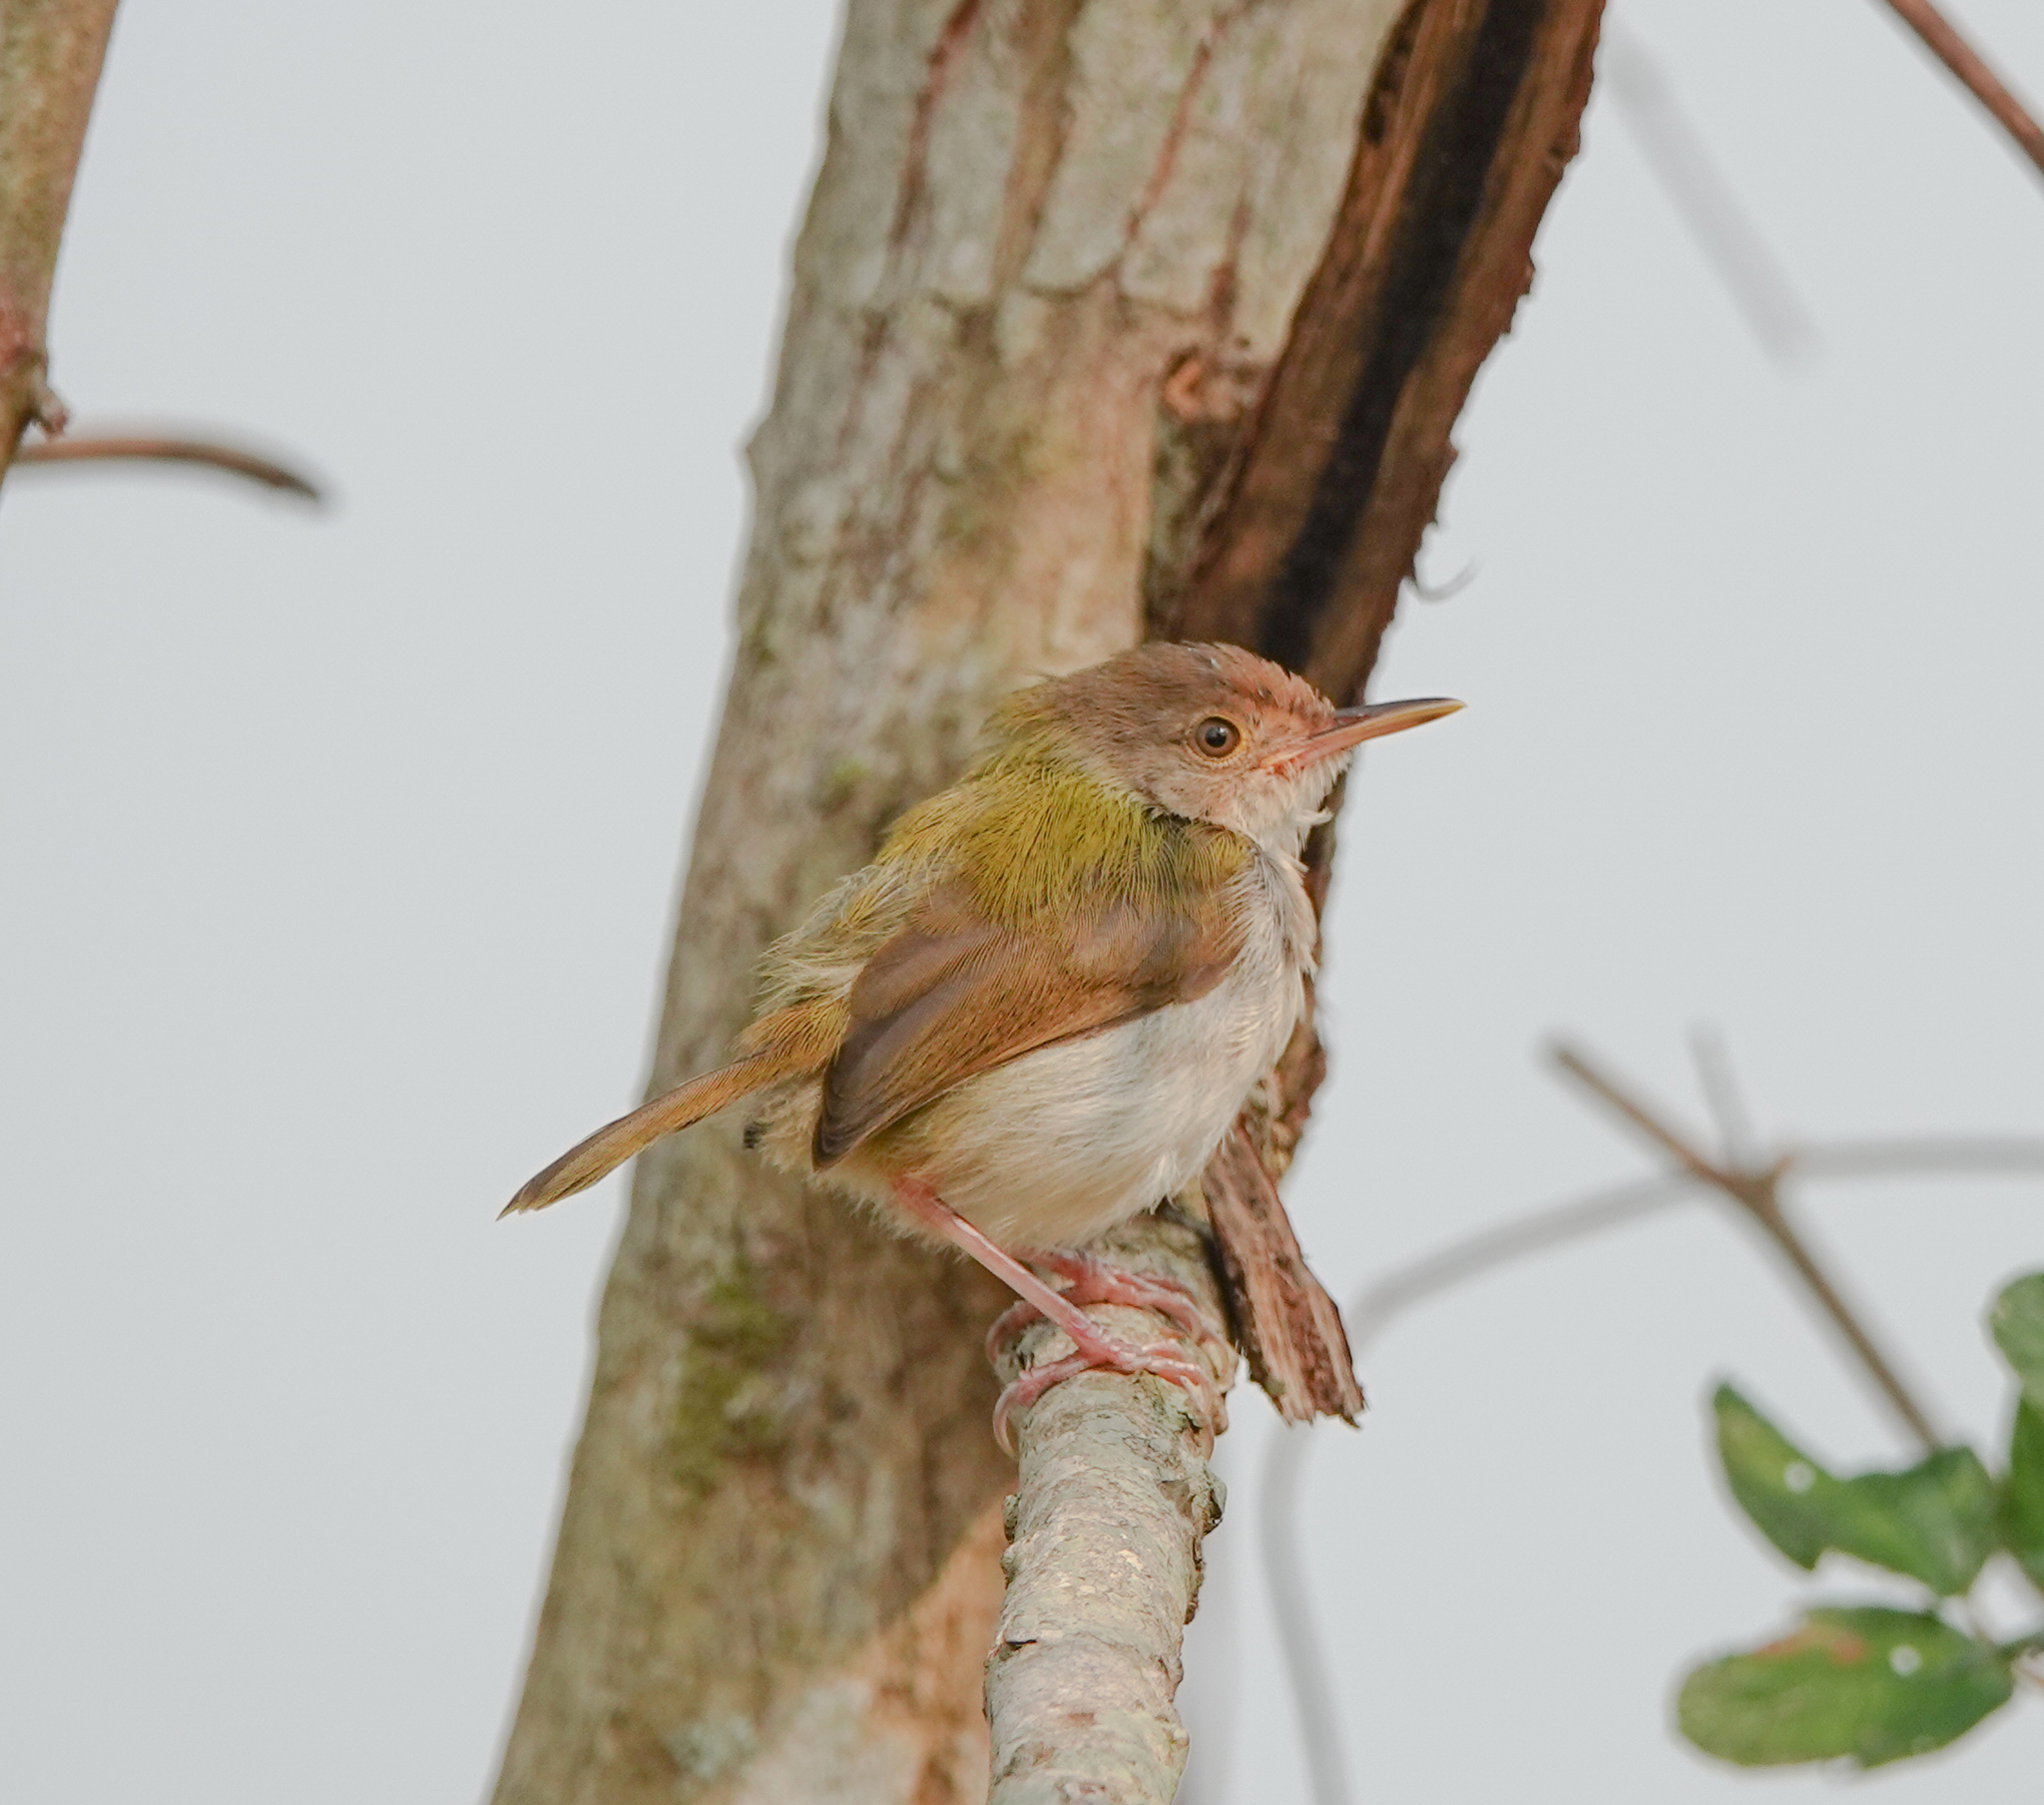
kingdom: Animalia
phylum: Chordata
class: Aves
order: Passeriformes
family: Cisticolidae
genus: Orthotomus
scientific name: Orthotomus sutorius
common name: Common tailorbird
